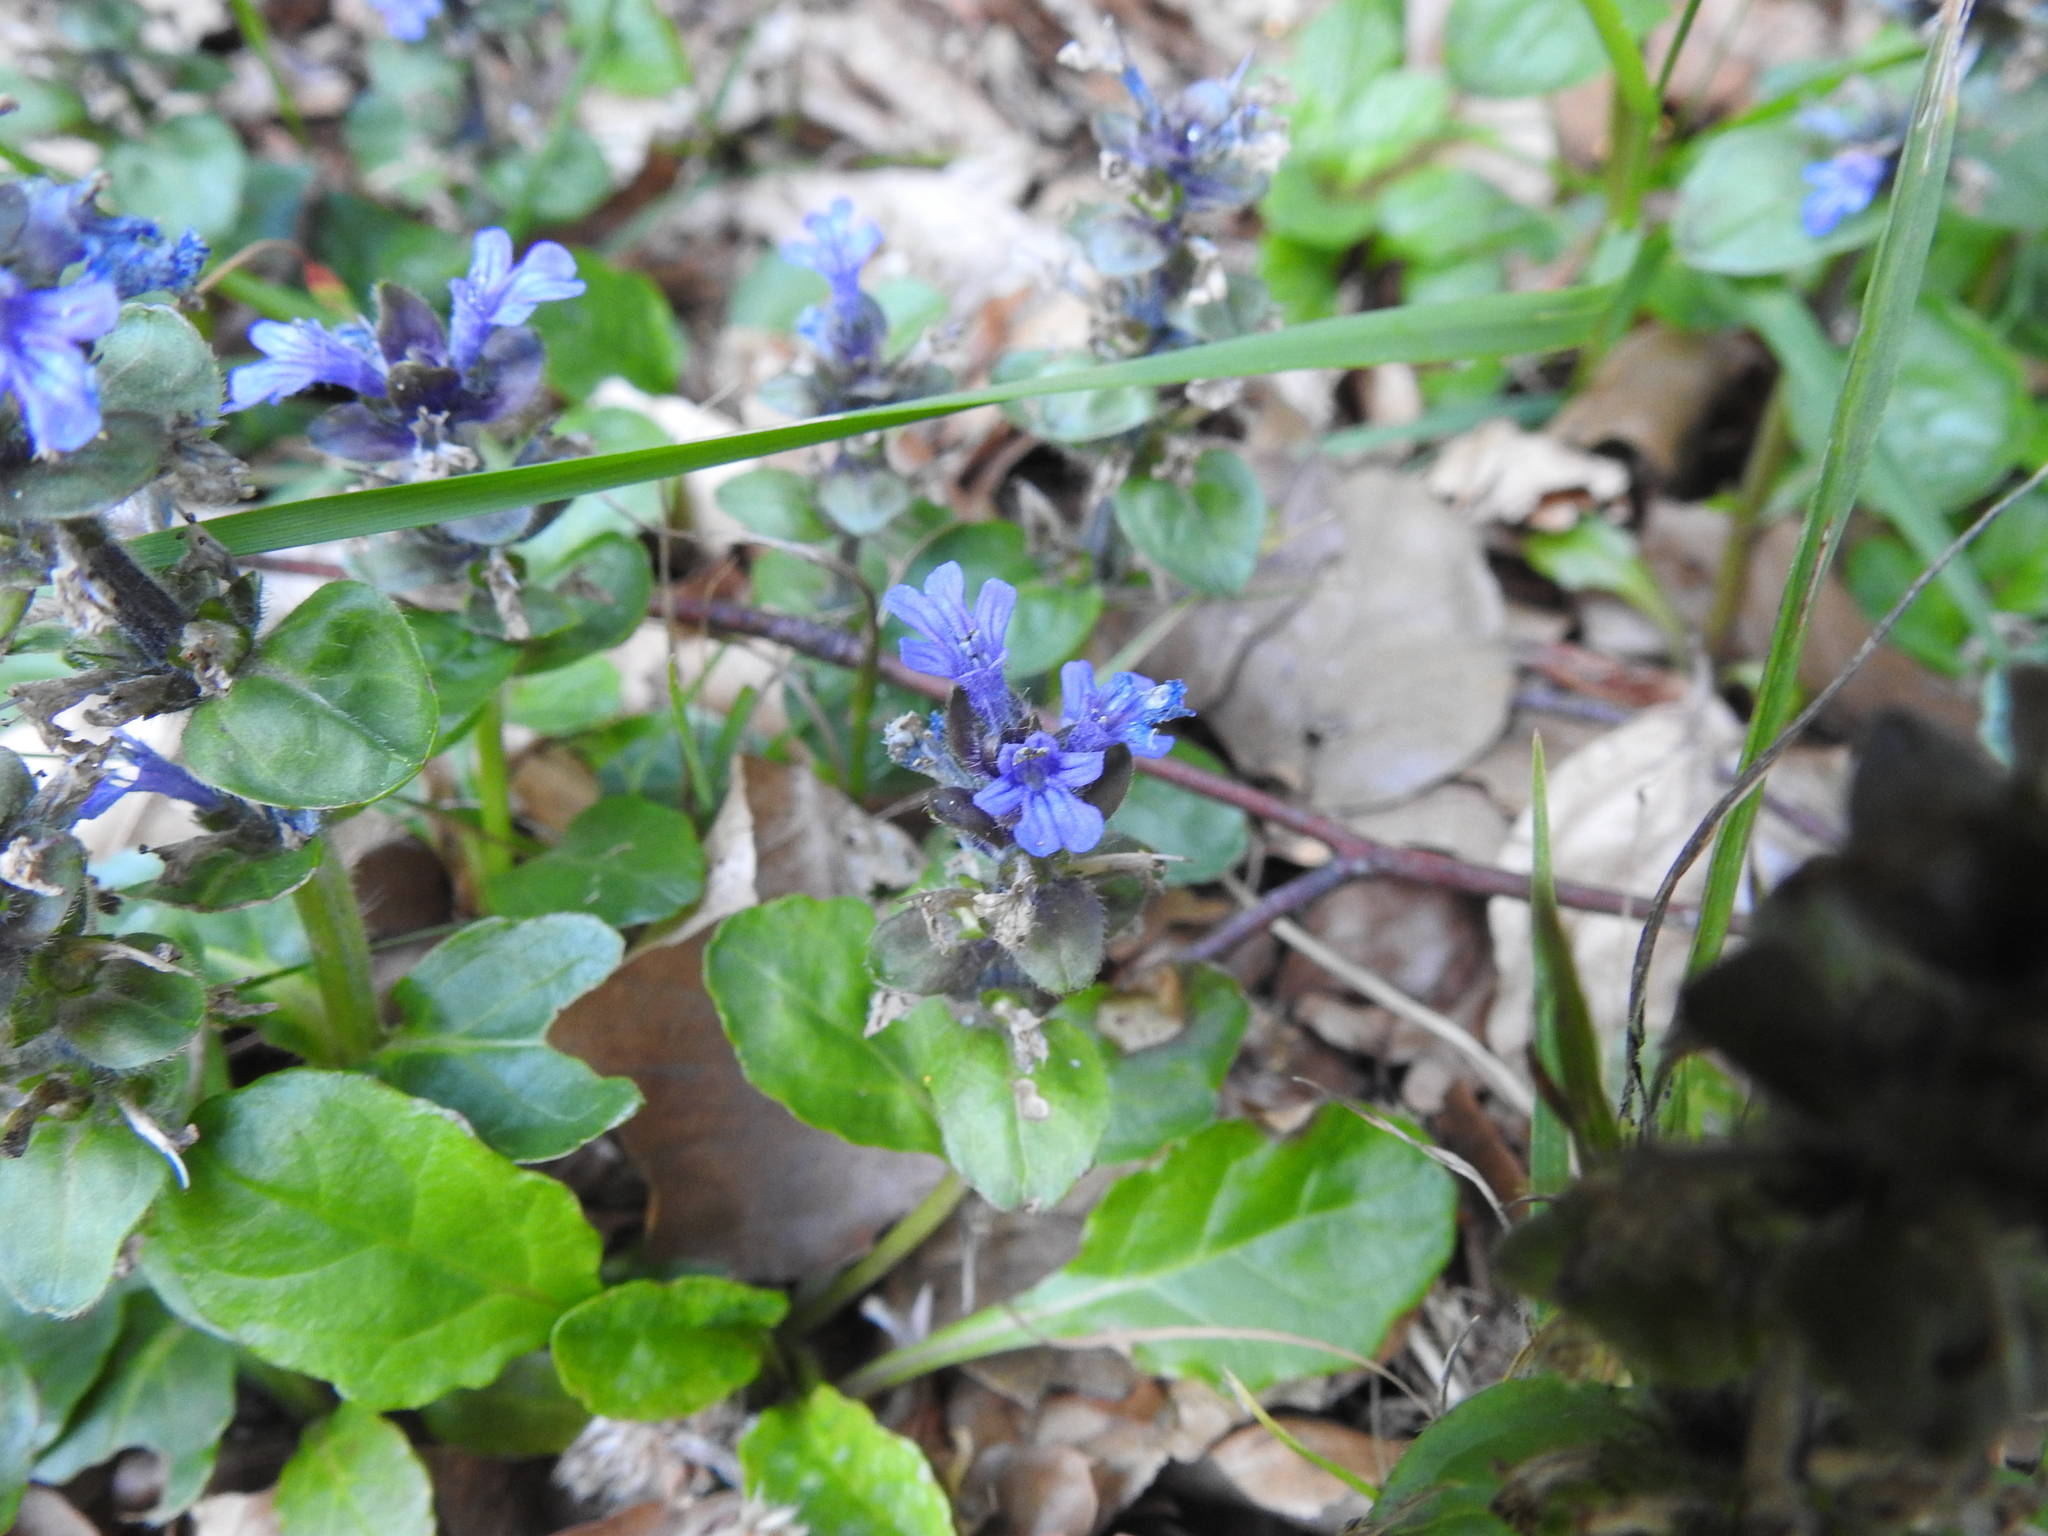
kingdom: Plantae
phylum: Tracheophyta
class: Magnoliopsida
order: Lamiales
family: Lamiaceae
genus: Ajuga
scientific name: Ajuga reptans
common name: Bugle
